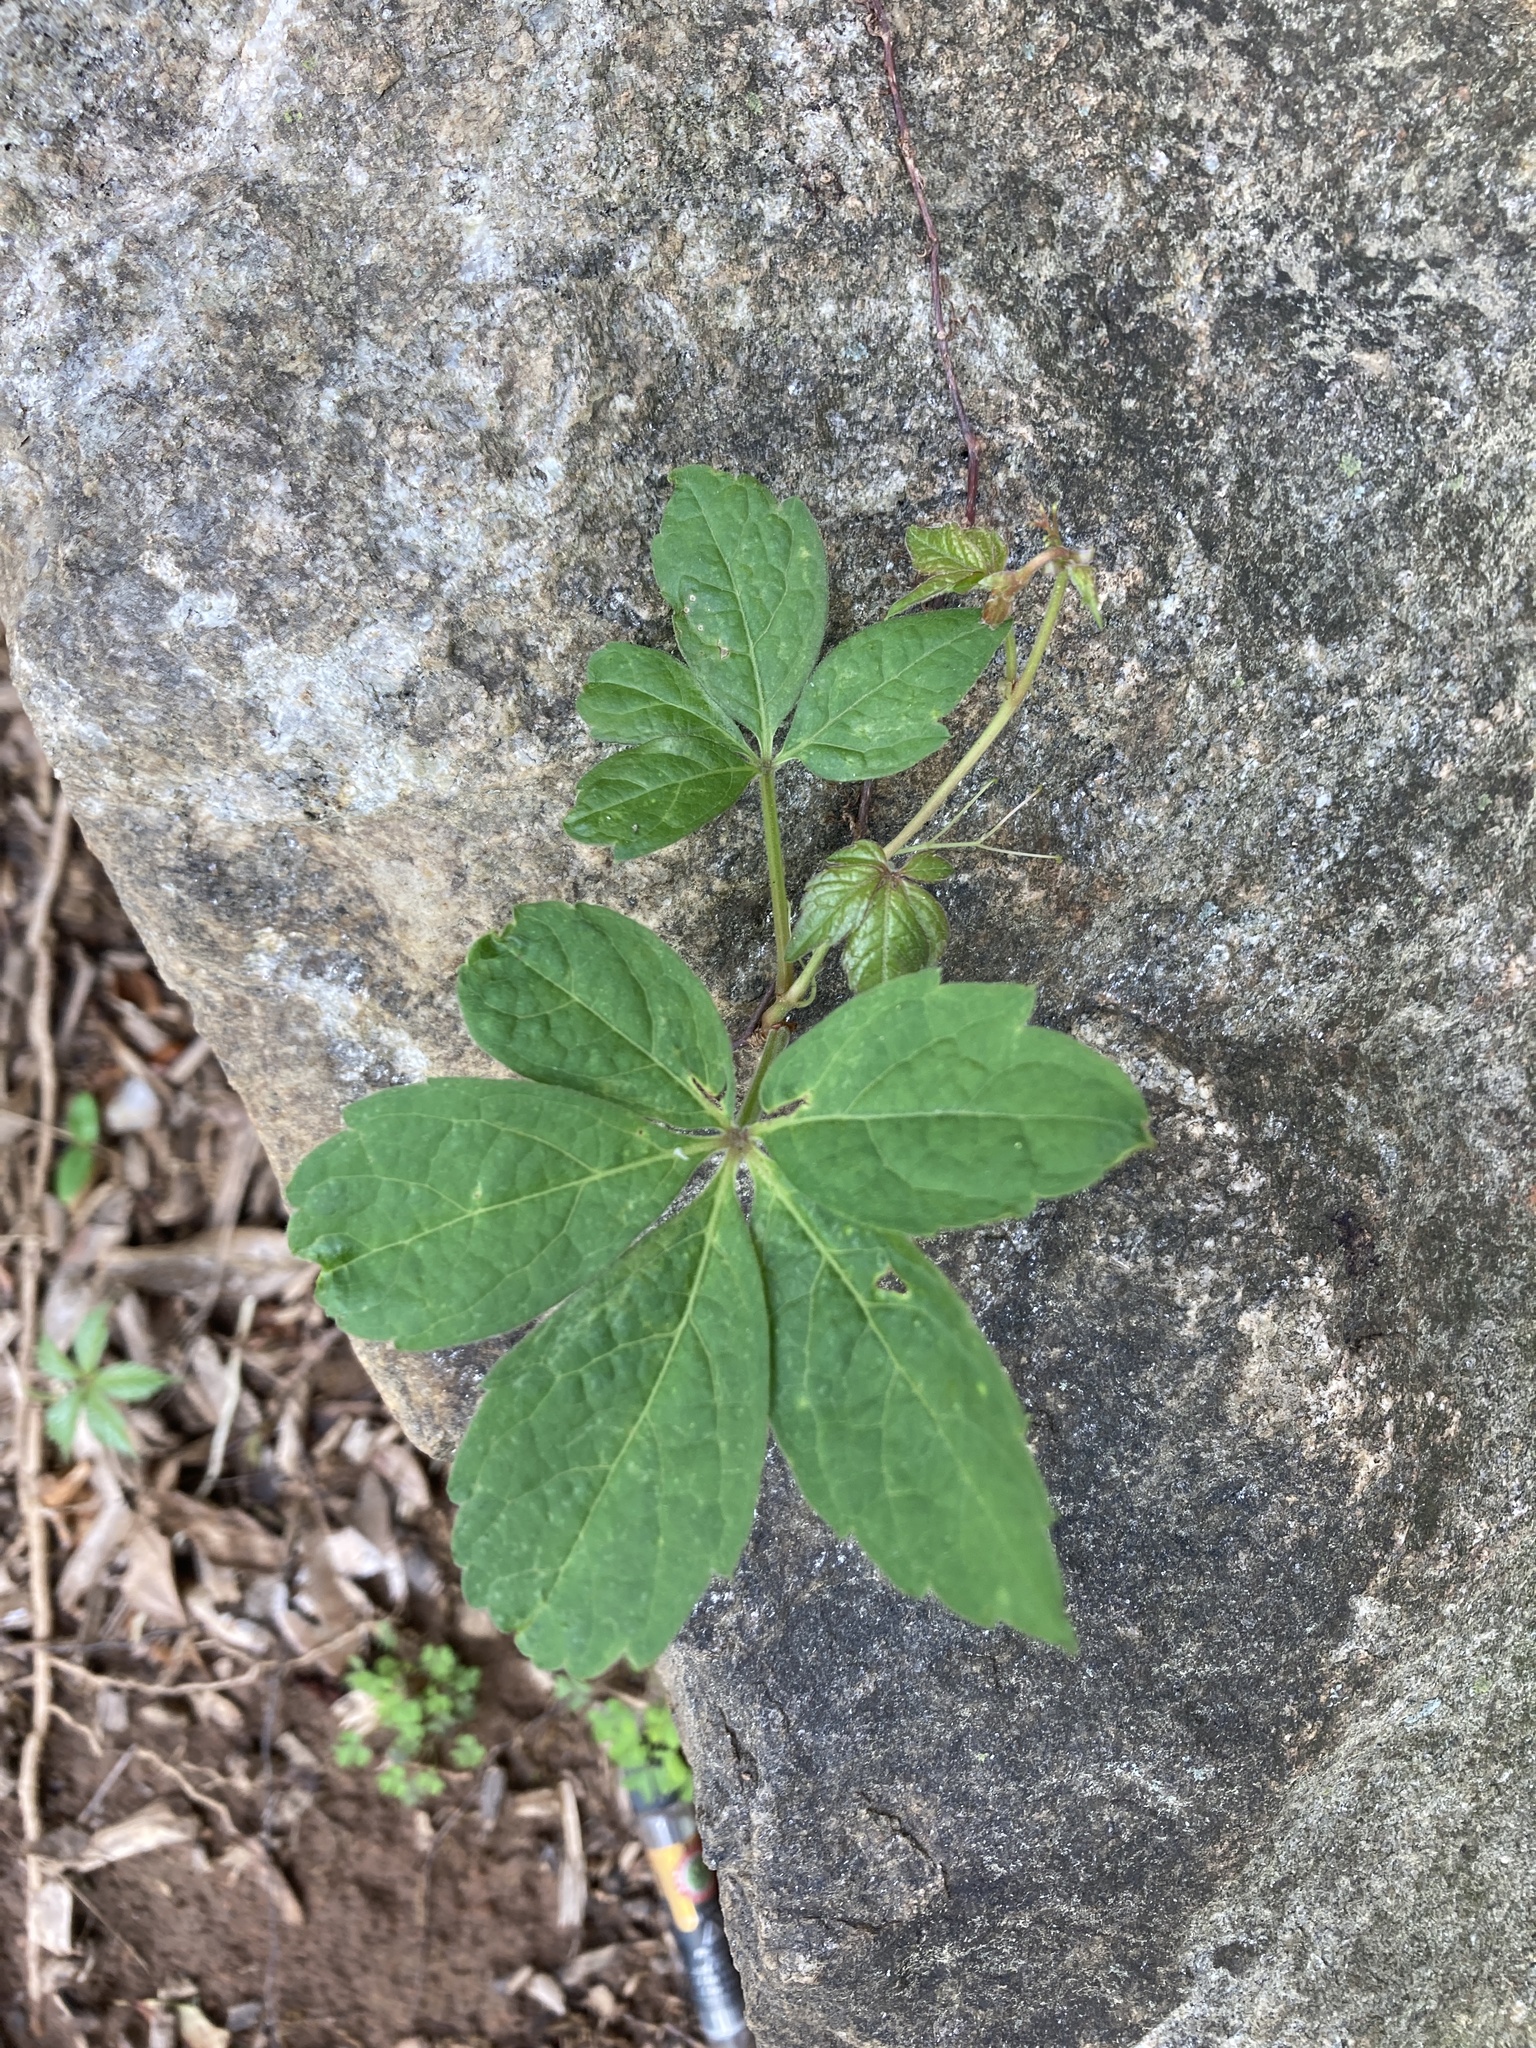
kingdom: Plantae
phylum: Tracheophyta
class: Magnoliopsida
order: Vitales
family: Vitaceae
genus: Parthenocissus
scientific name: Parthenocissus quinquefolia
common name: Virginia-creeper
